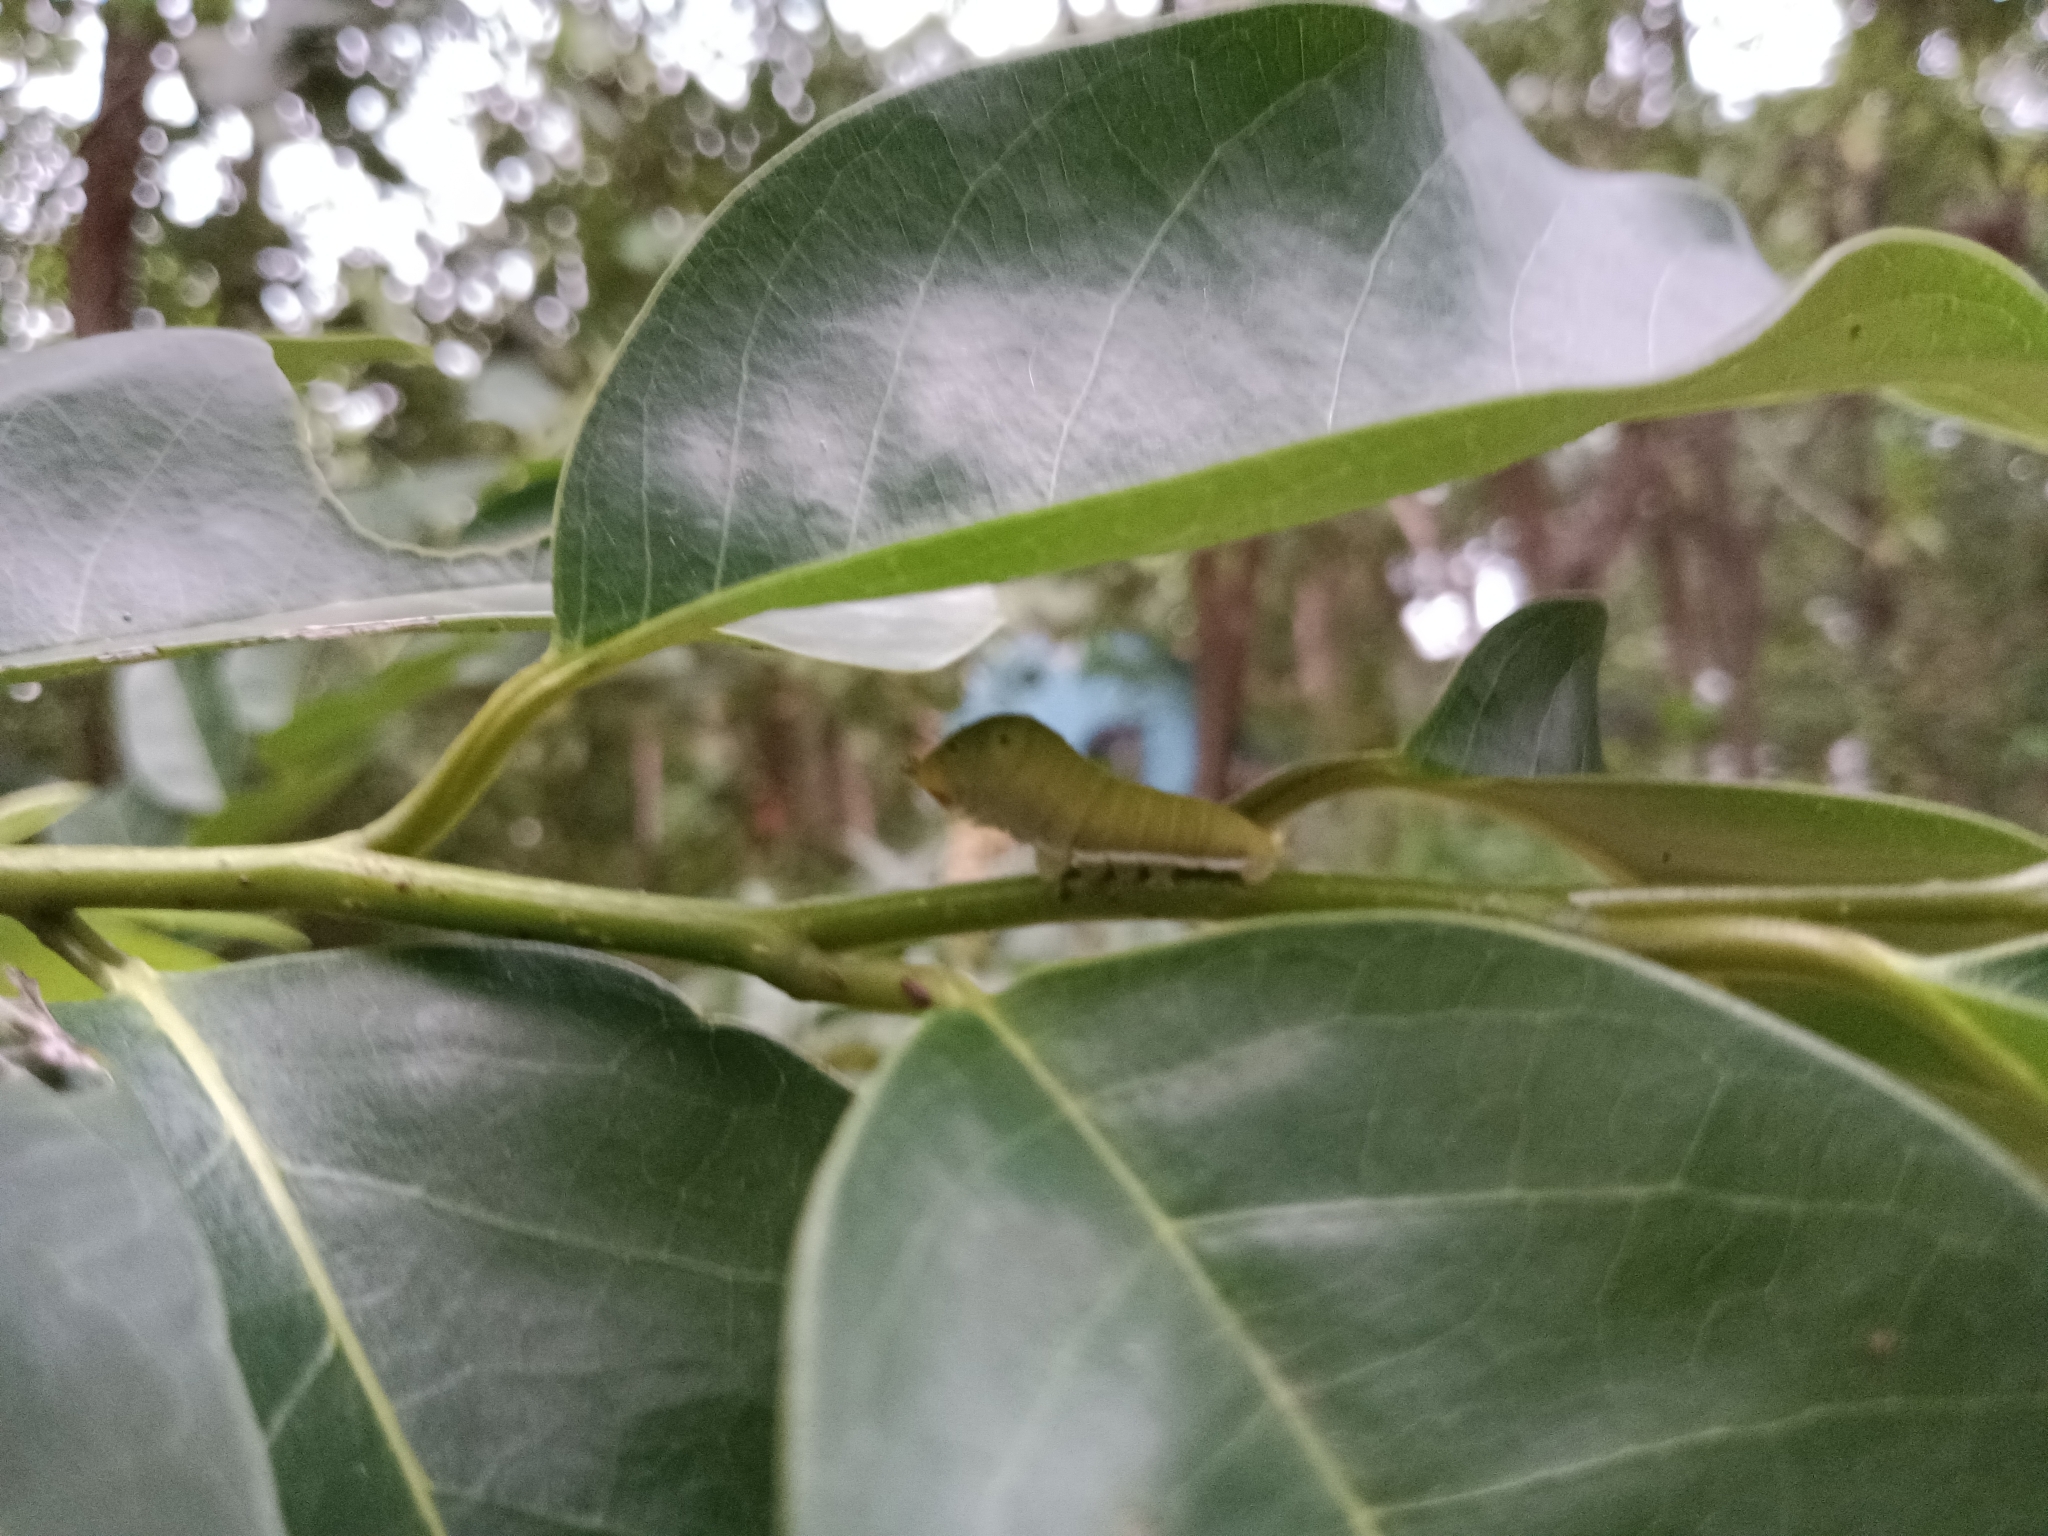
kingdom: Animalia
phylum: Arthropoda
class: Insecta
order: Lepidoptera
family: Papilionidae
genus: Graphium
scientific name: Graphium doson
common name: Common jay
